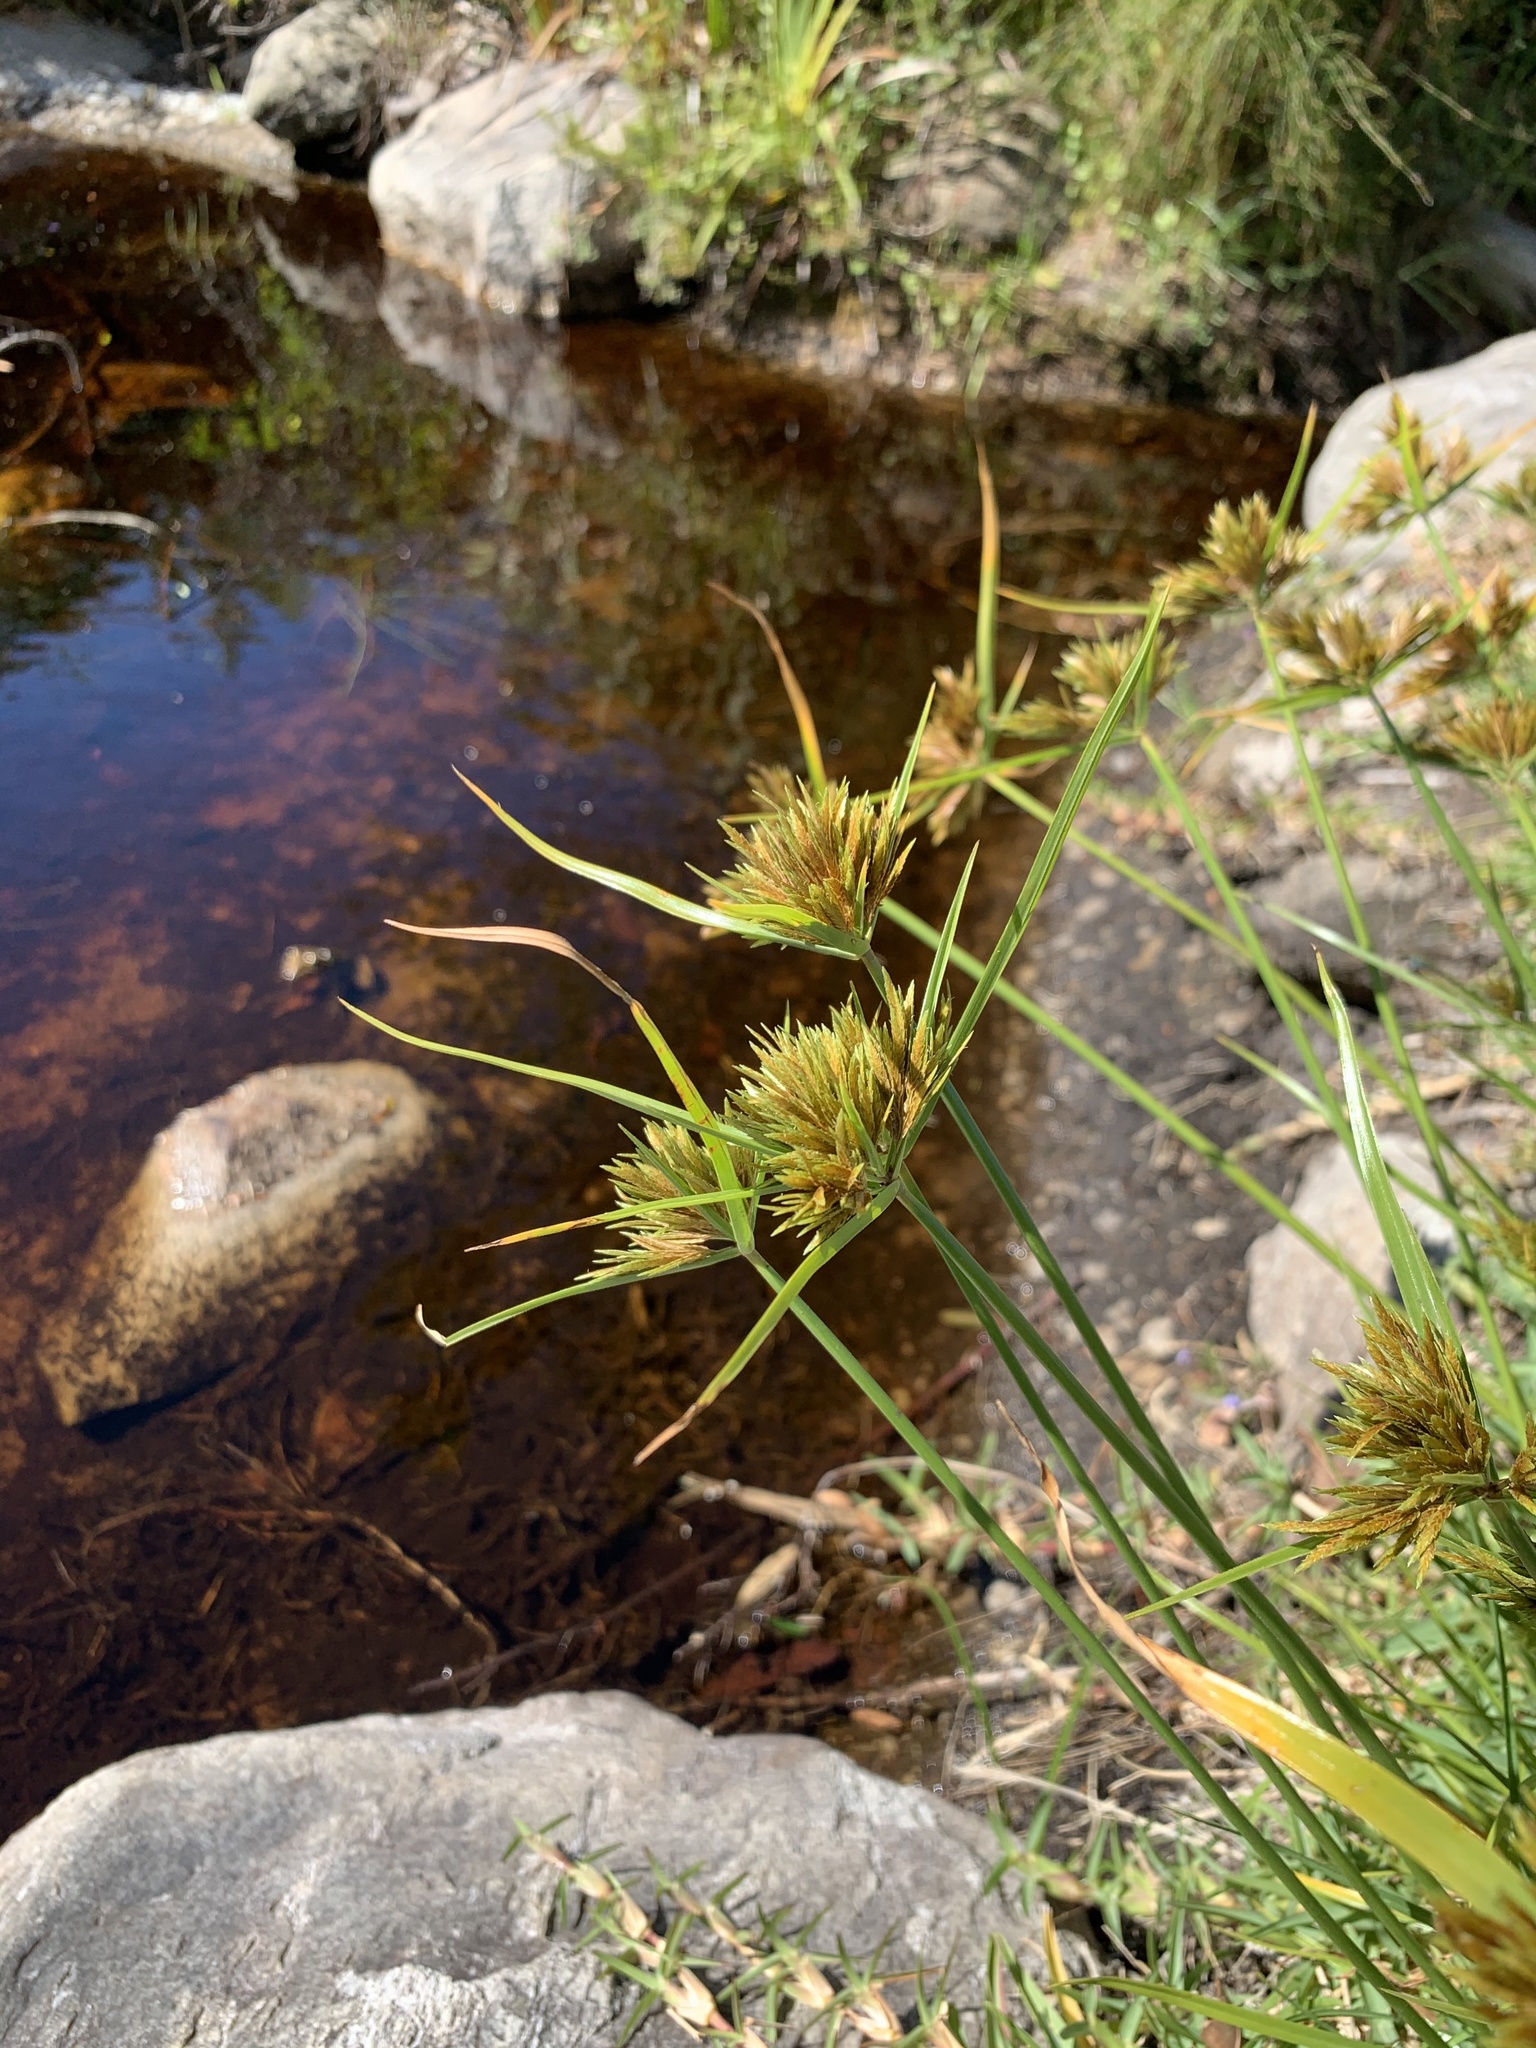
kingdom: Plantae
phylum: Tracheophyta
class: Liliopsida
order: Poales
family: Cyperaceae
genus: Cyperus
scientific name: Cyperus polystachyos
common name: Bunchy flat sedge
